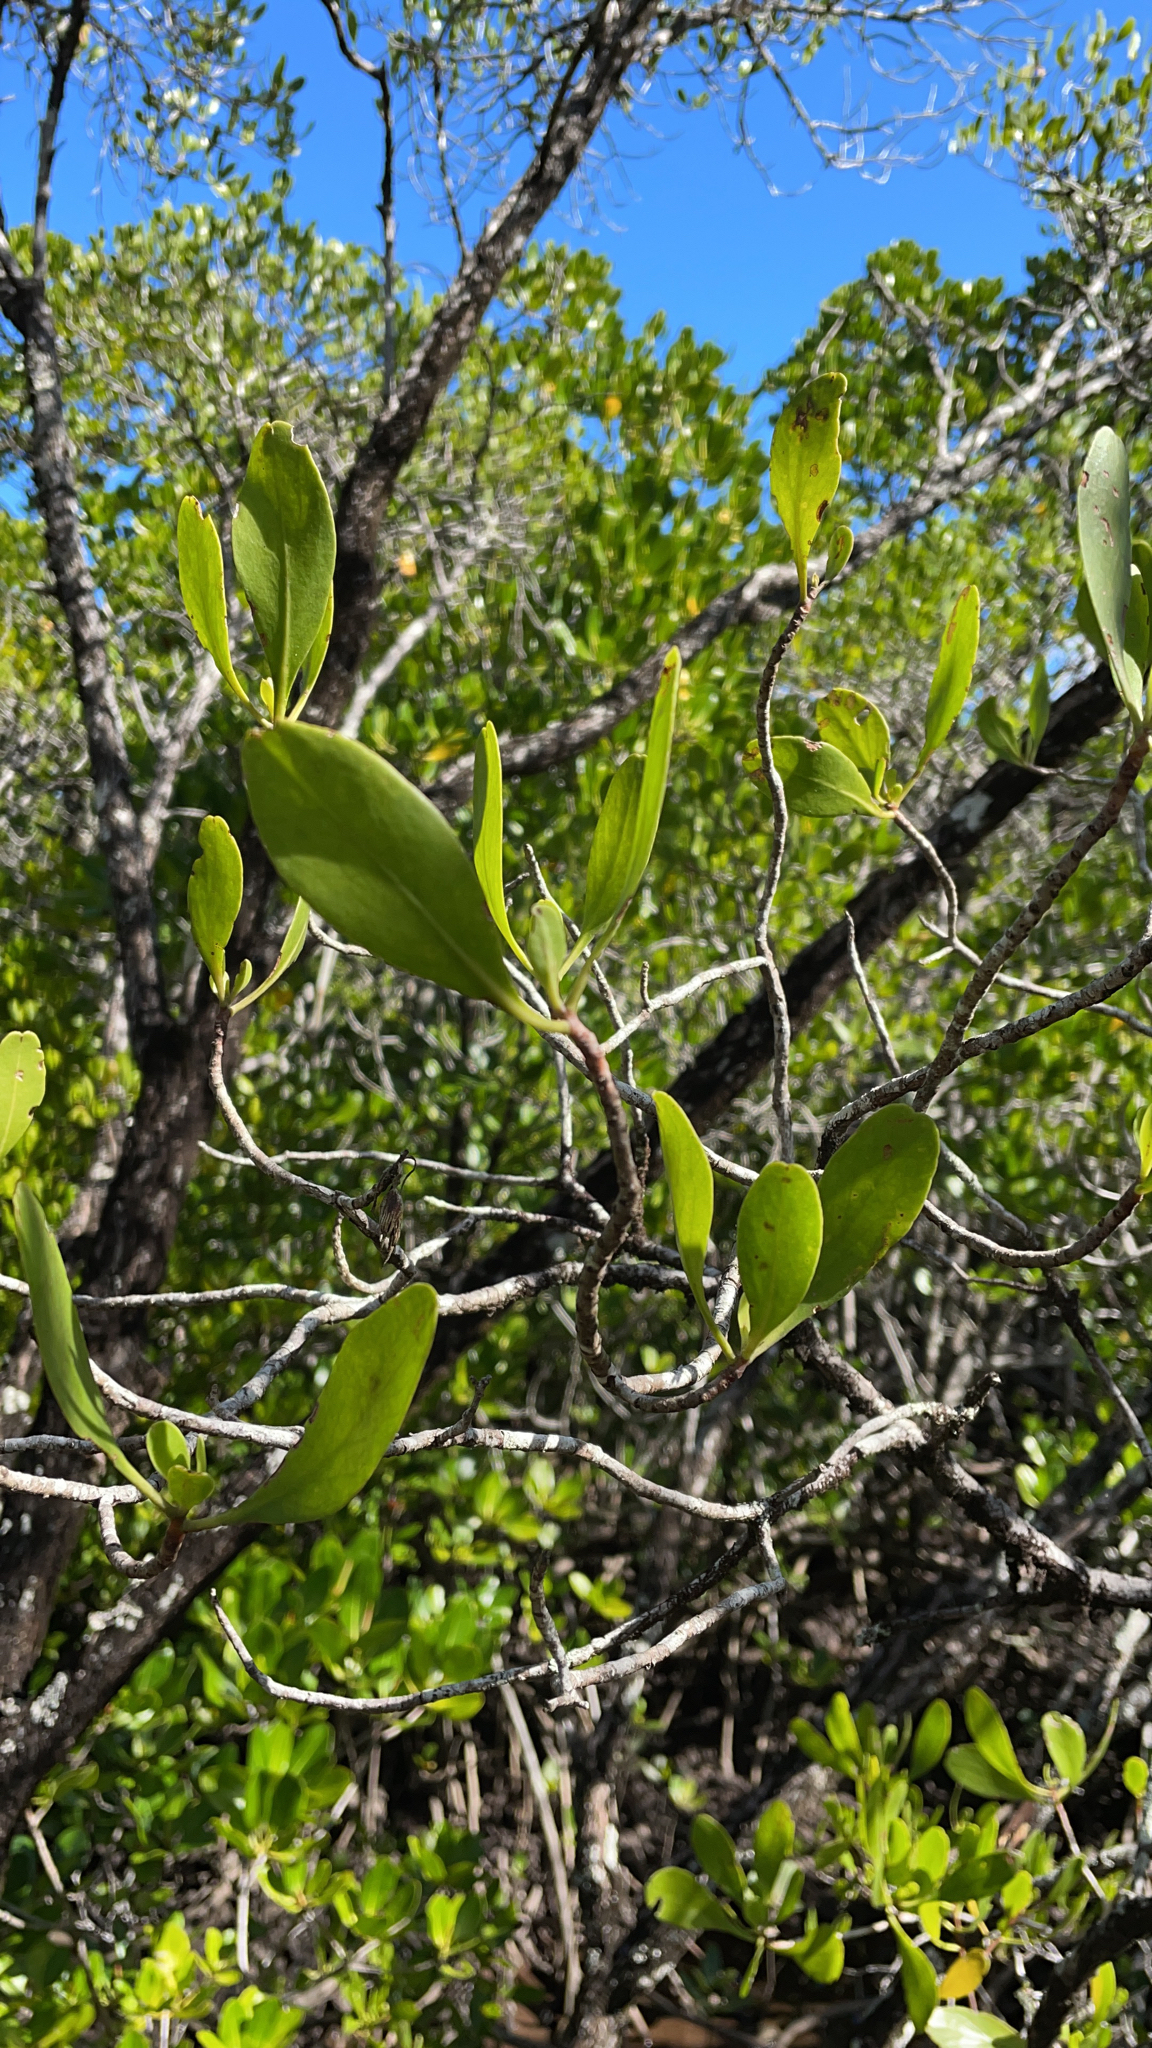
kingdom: Plantae
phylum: Tracheophyta
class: Magnoliopsida
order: Myrtales
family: Combretaceae
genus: Lumnitzera
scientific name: Lumnitzera racemosa
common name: White-flowered black mangrove
